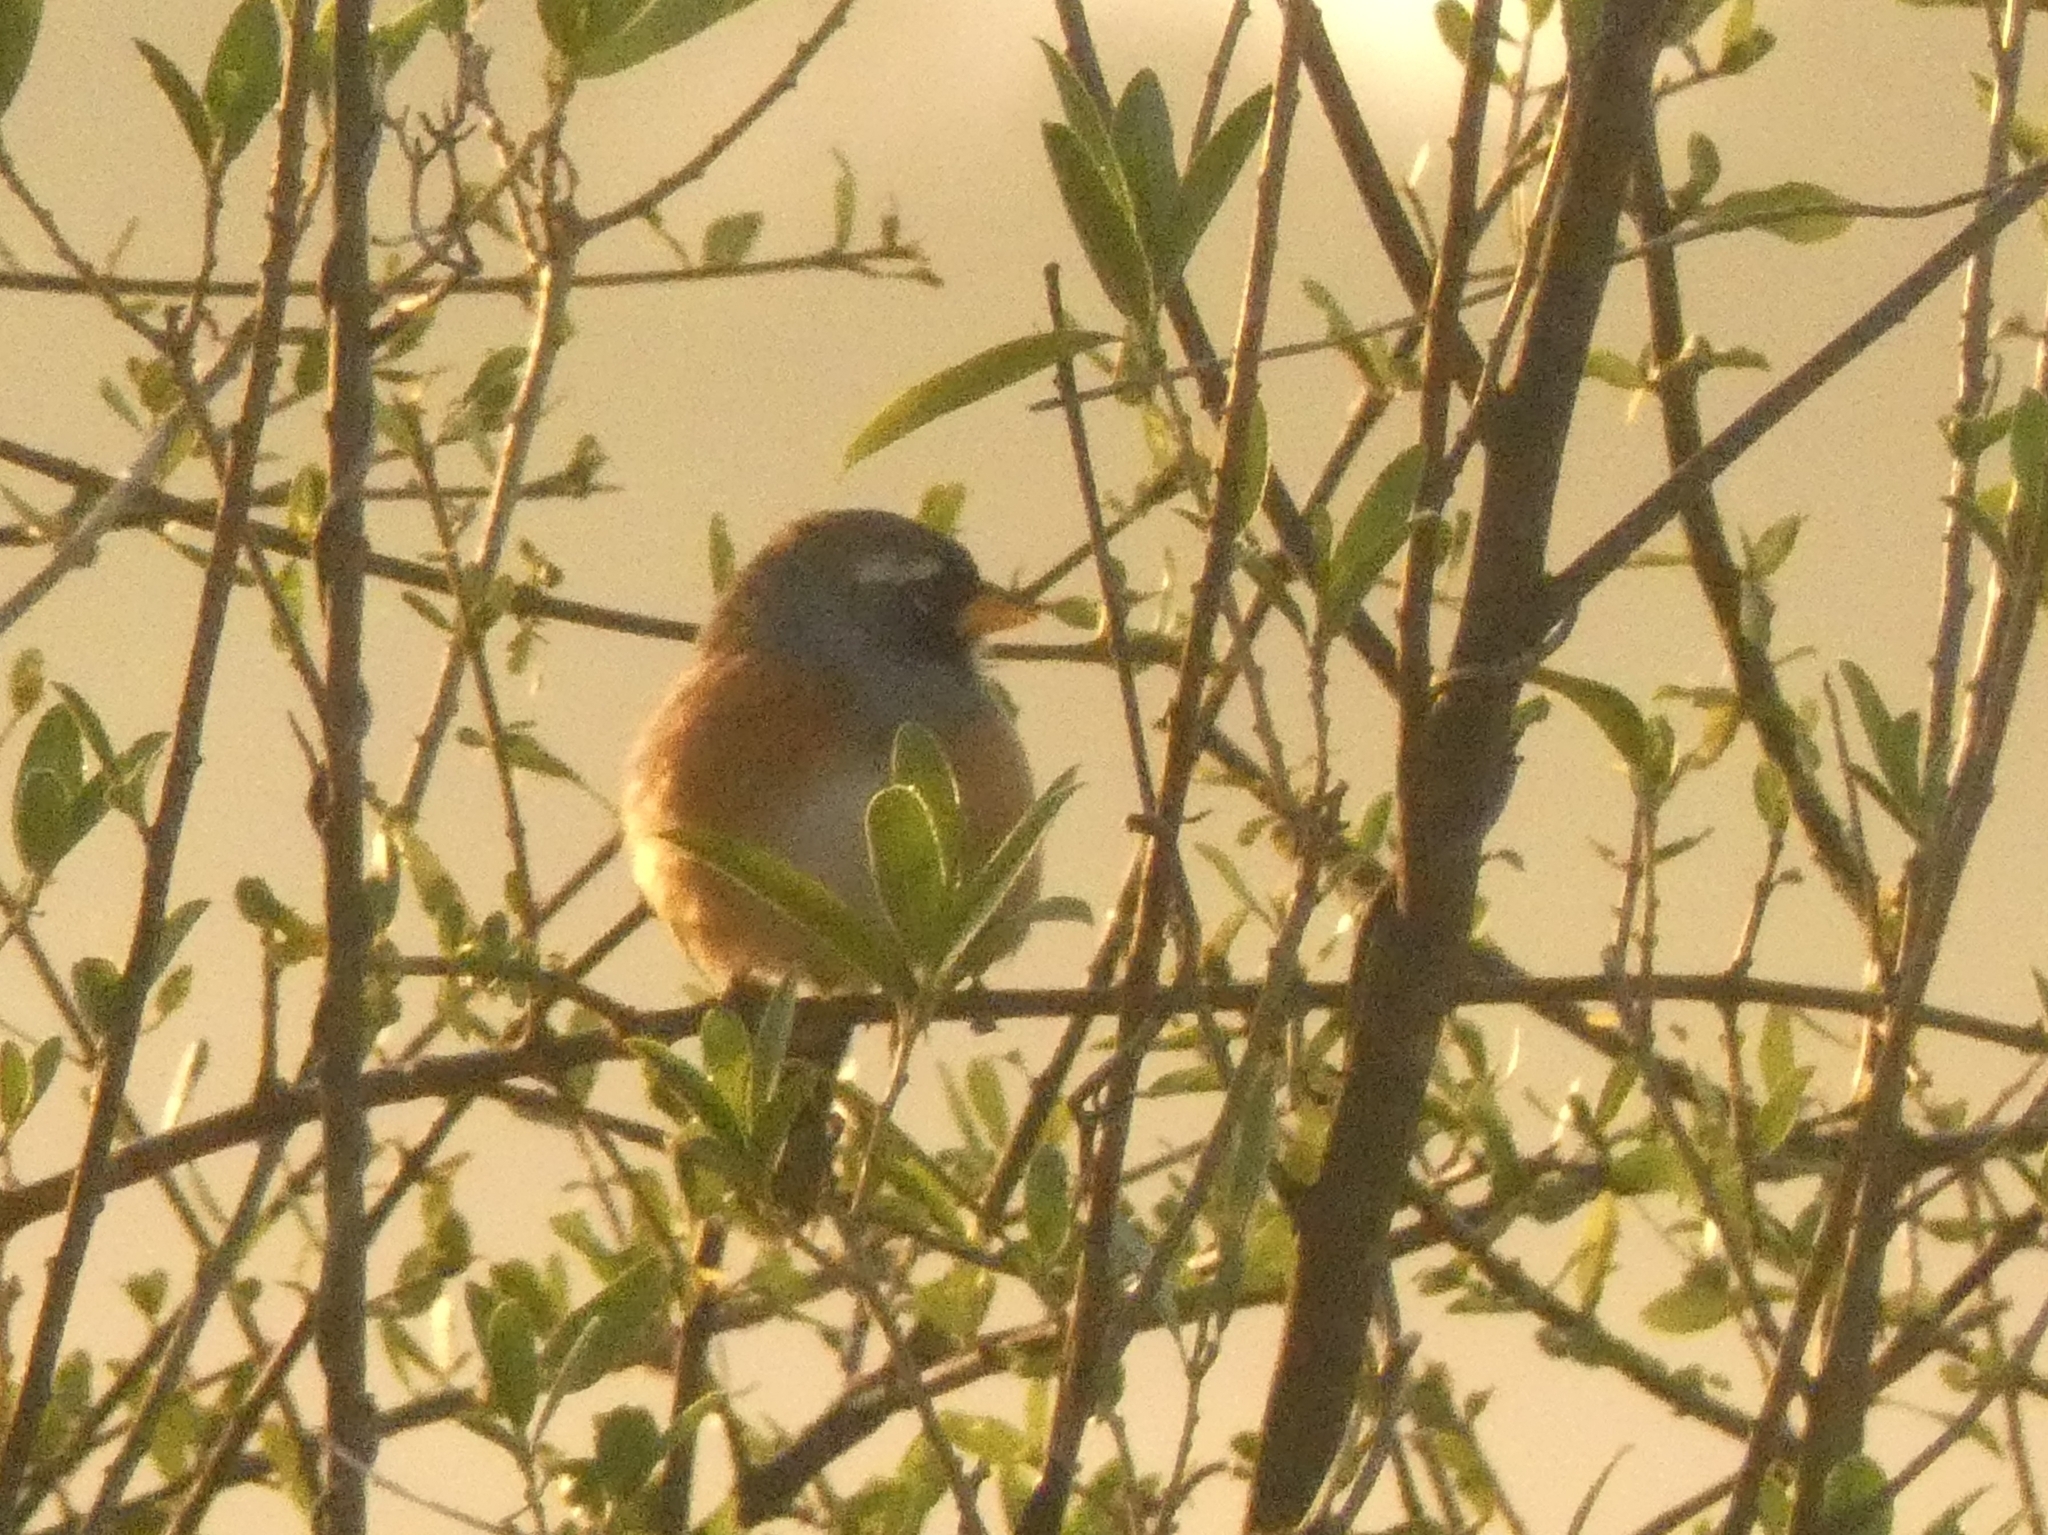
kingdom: Animalia
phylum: Chordata
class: Aves
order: Passeriformes
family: Thraupidae
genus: Saltatricula
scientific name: Saltatricula multicolor
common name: Many-colored chaco finch
